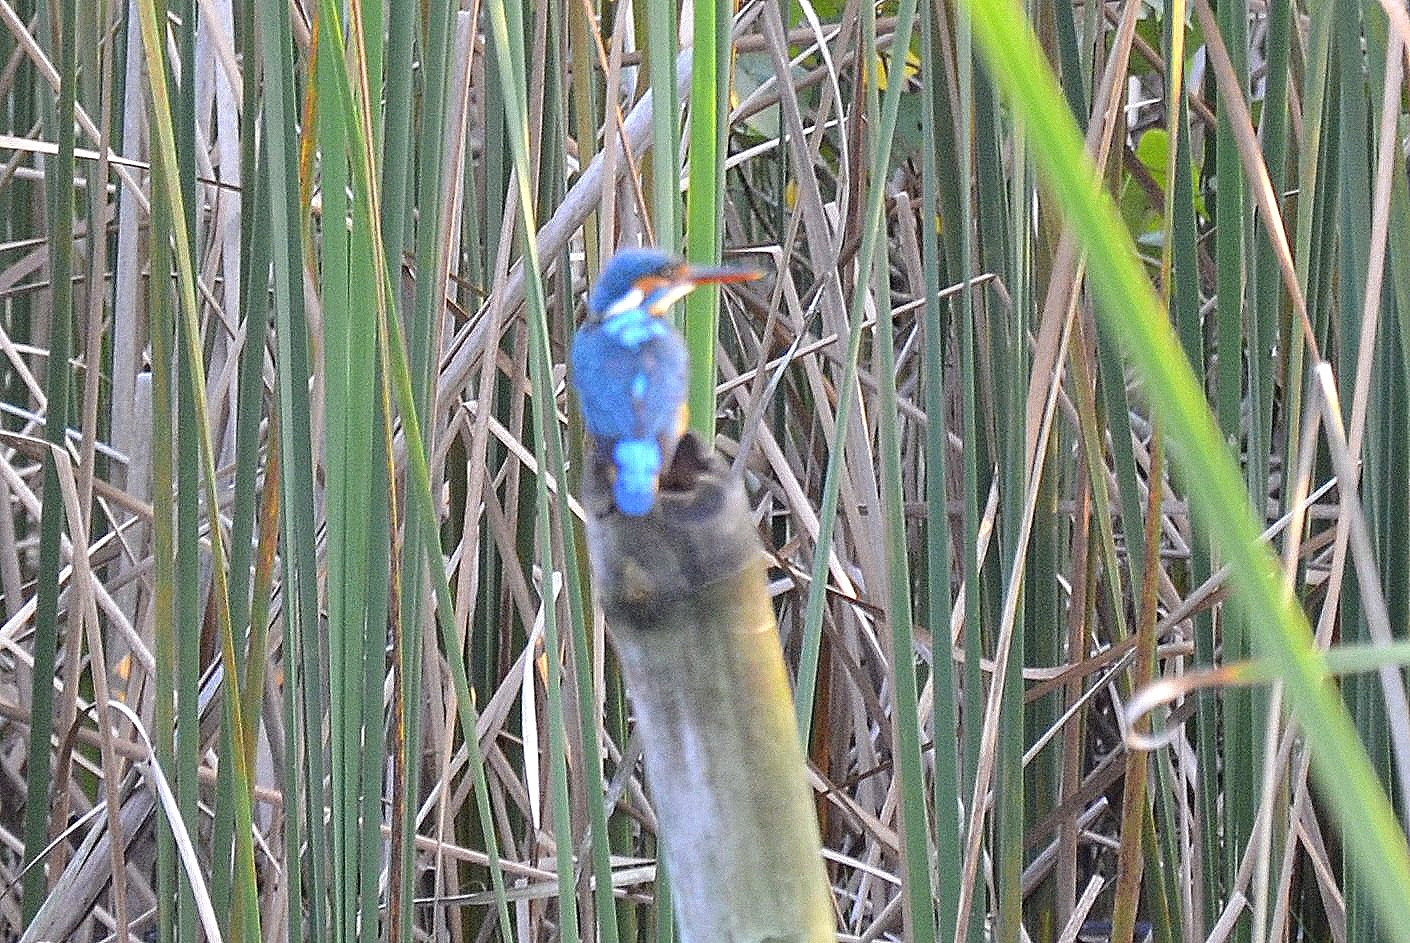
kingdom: Animalia
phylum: Chordata
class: Aves
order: Coraciiformes
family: Alcedinidae
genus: Alcedo
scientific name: Alcedo atthis
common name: Common kingfisher
